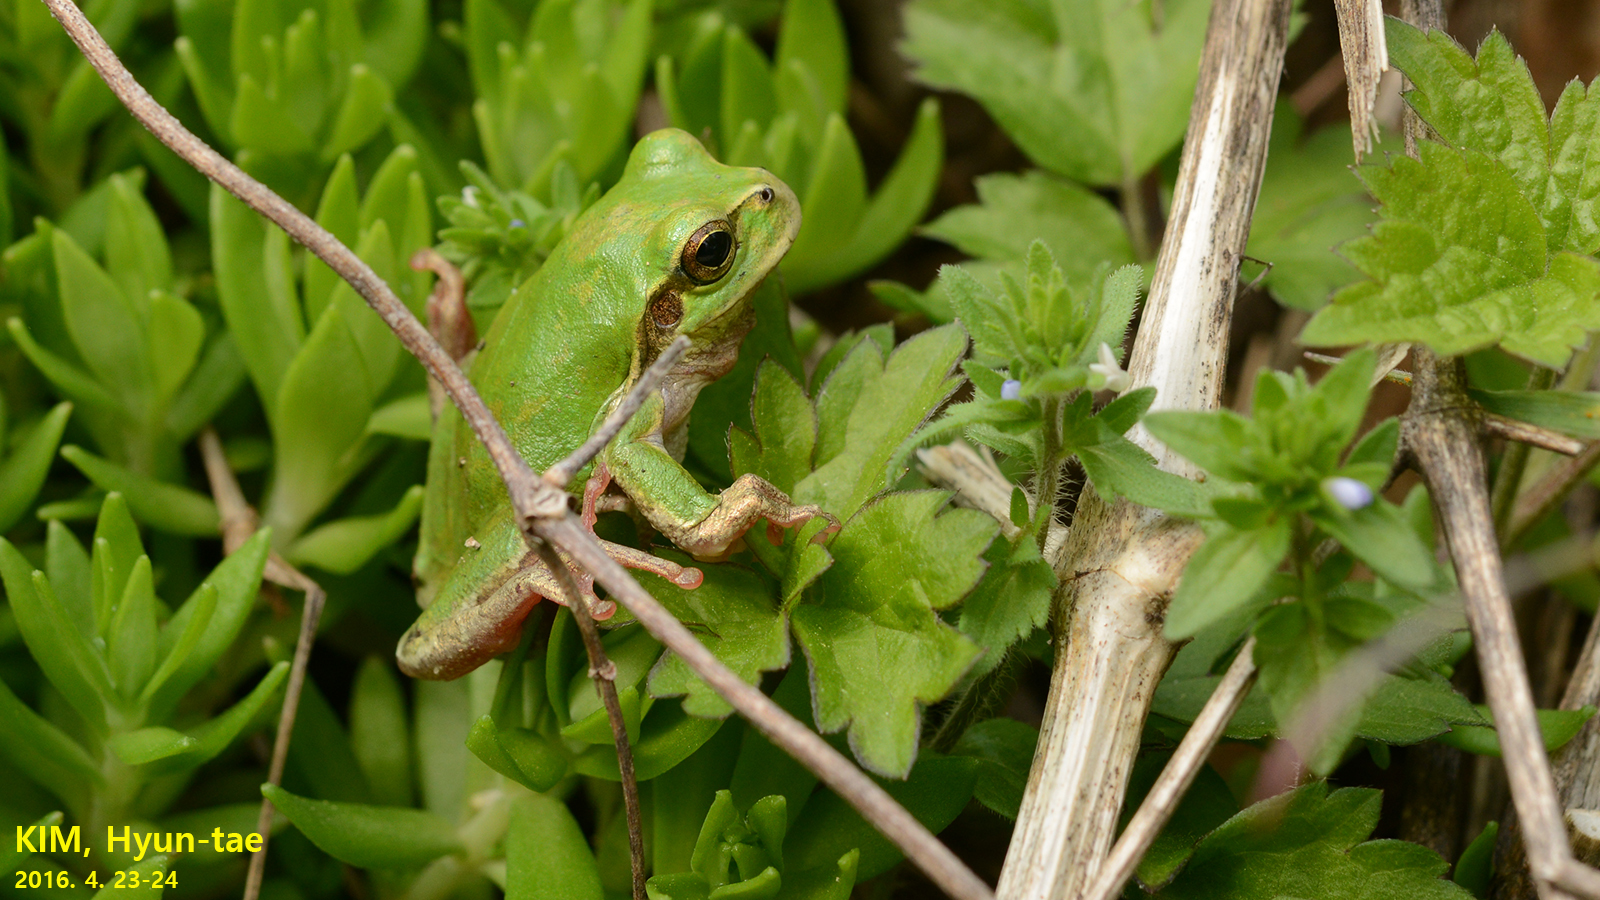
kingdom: Animalia
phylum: Chordata
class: Amphibia
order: Anura
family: Hylidae
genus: Dryophytes
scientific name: Dryophytes japonicus
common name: Japanese treefrog
